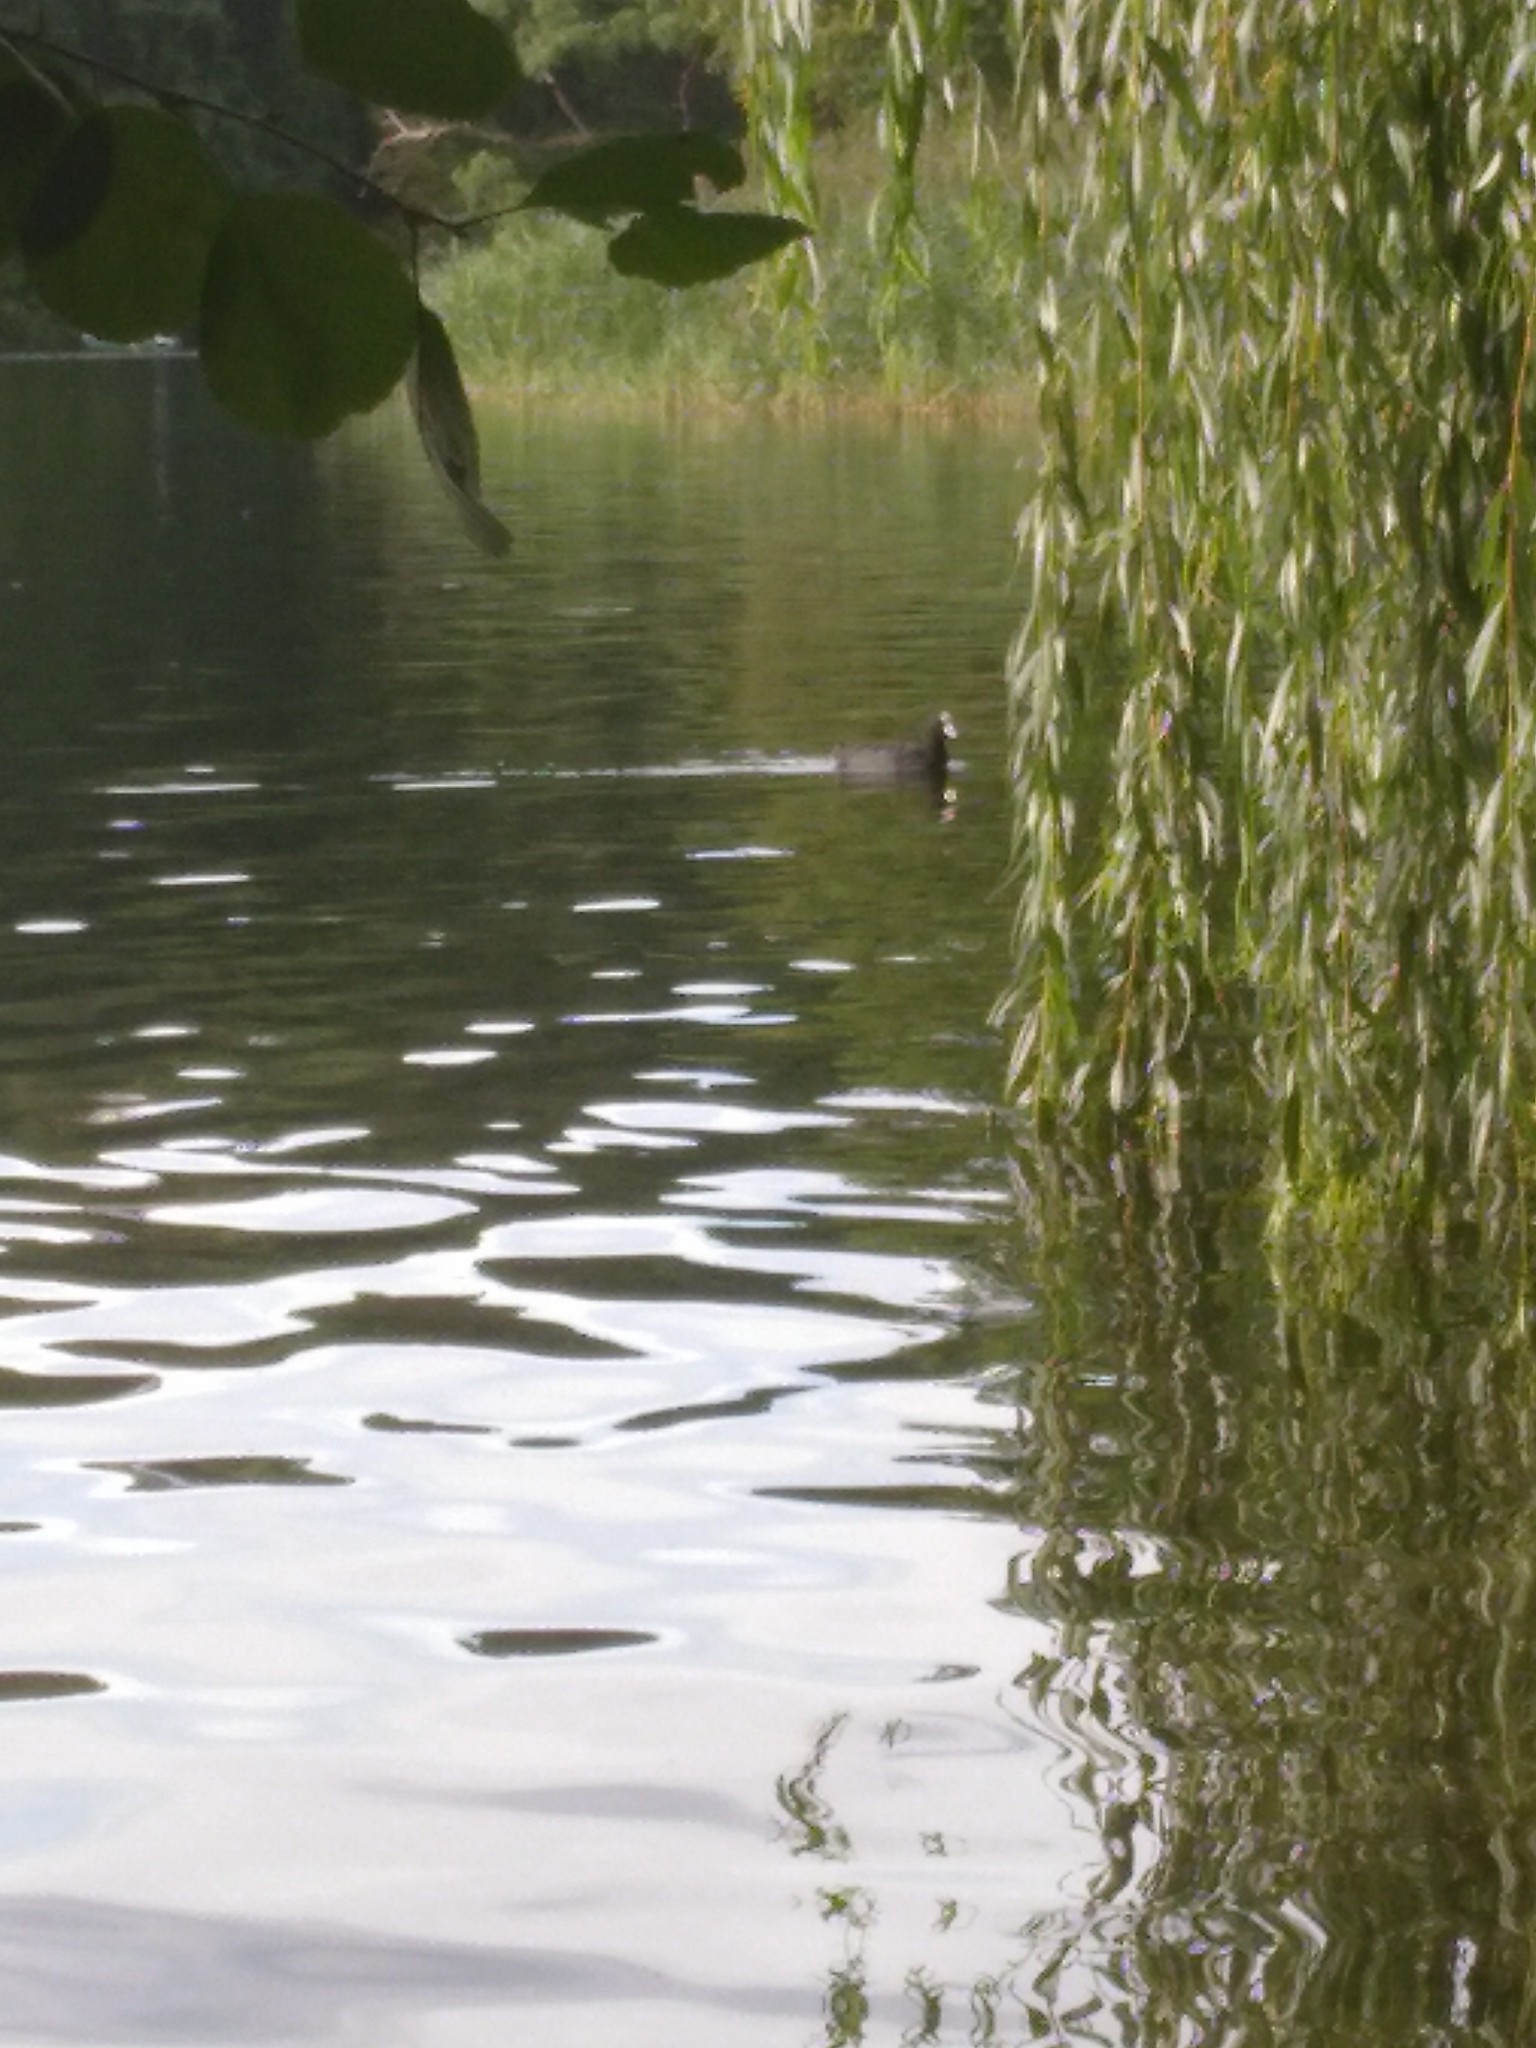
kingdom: Animalia
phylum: Chordata
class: Aves
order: Gruiformes
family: Rallidae
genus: Fulica
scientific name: Fulica atra
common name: Eurasian coot
